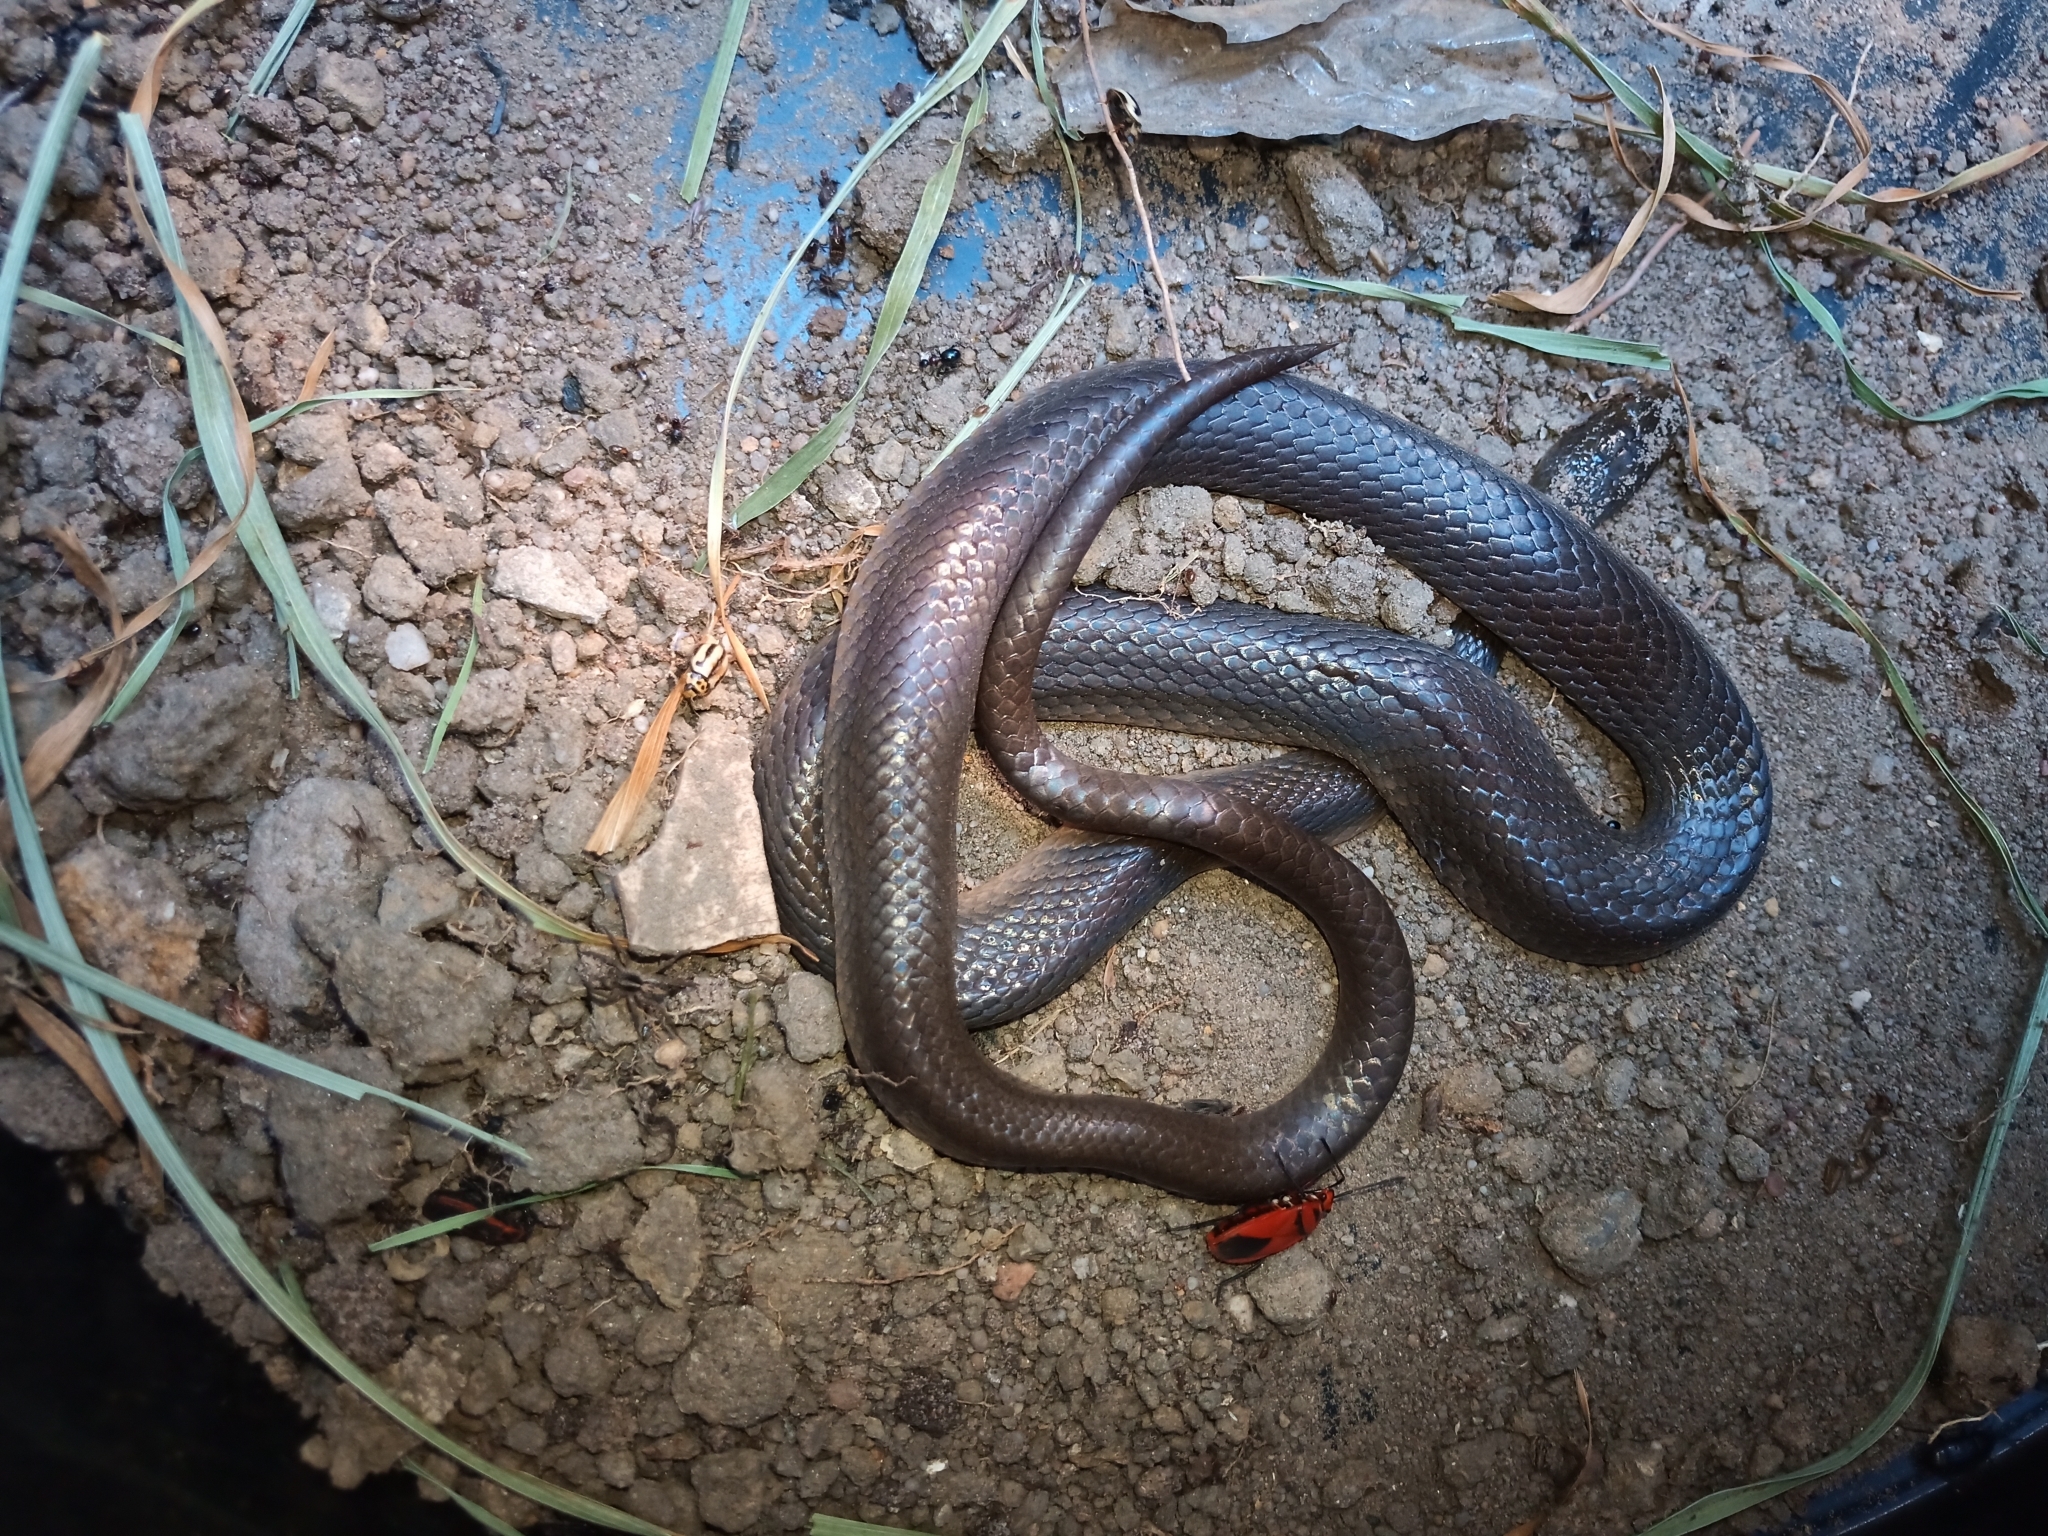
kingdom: Animalia
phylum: Chordata
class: Squamata
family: Lamprophiidae
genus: Lycodonomorphus
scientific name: Lycodonomorphus rufulus
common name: Brown water snake
